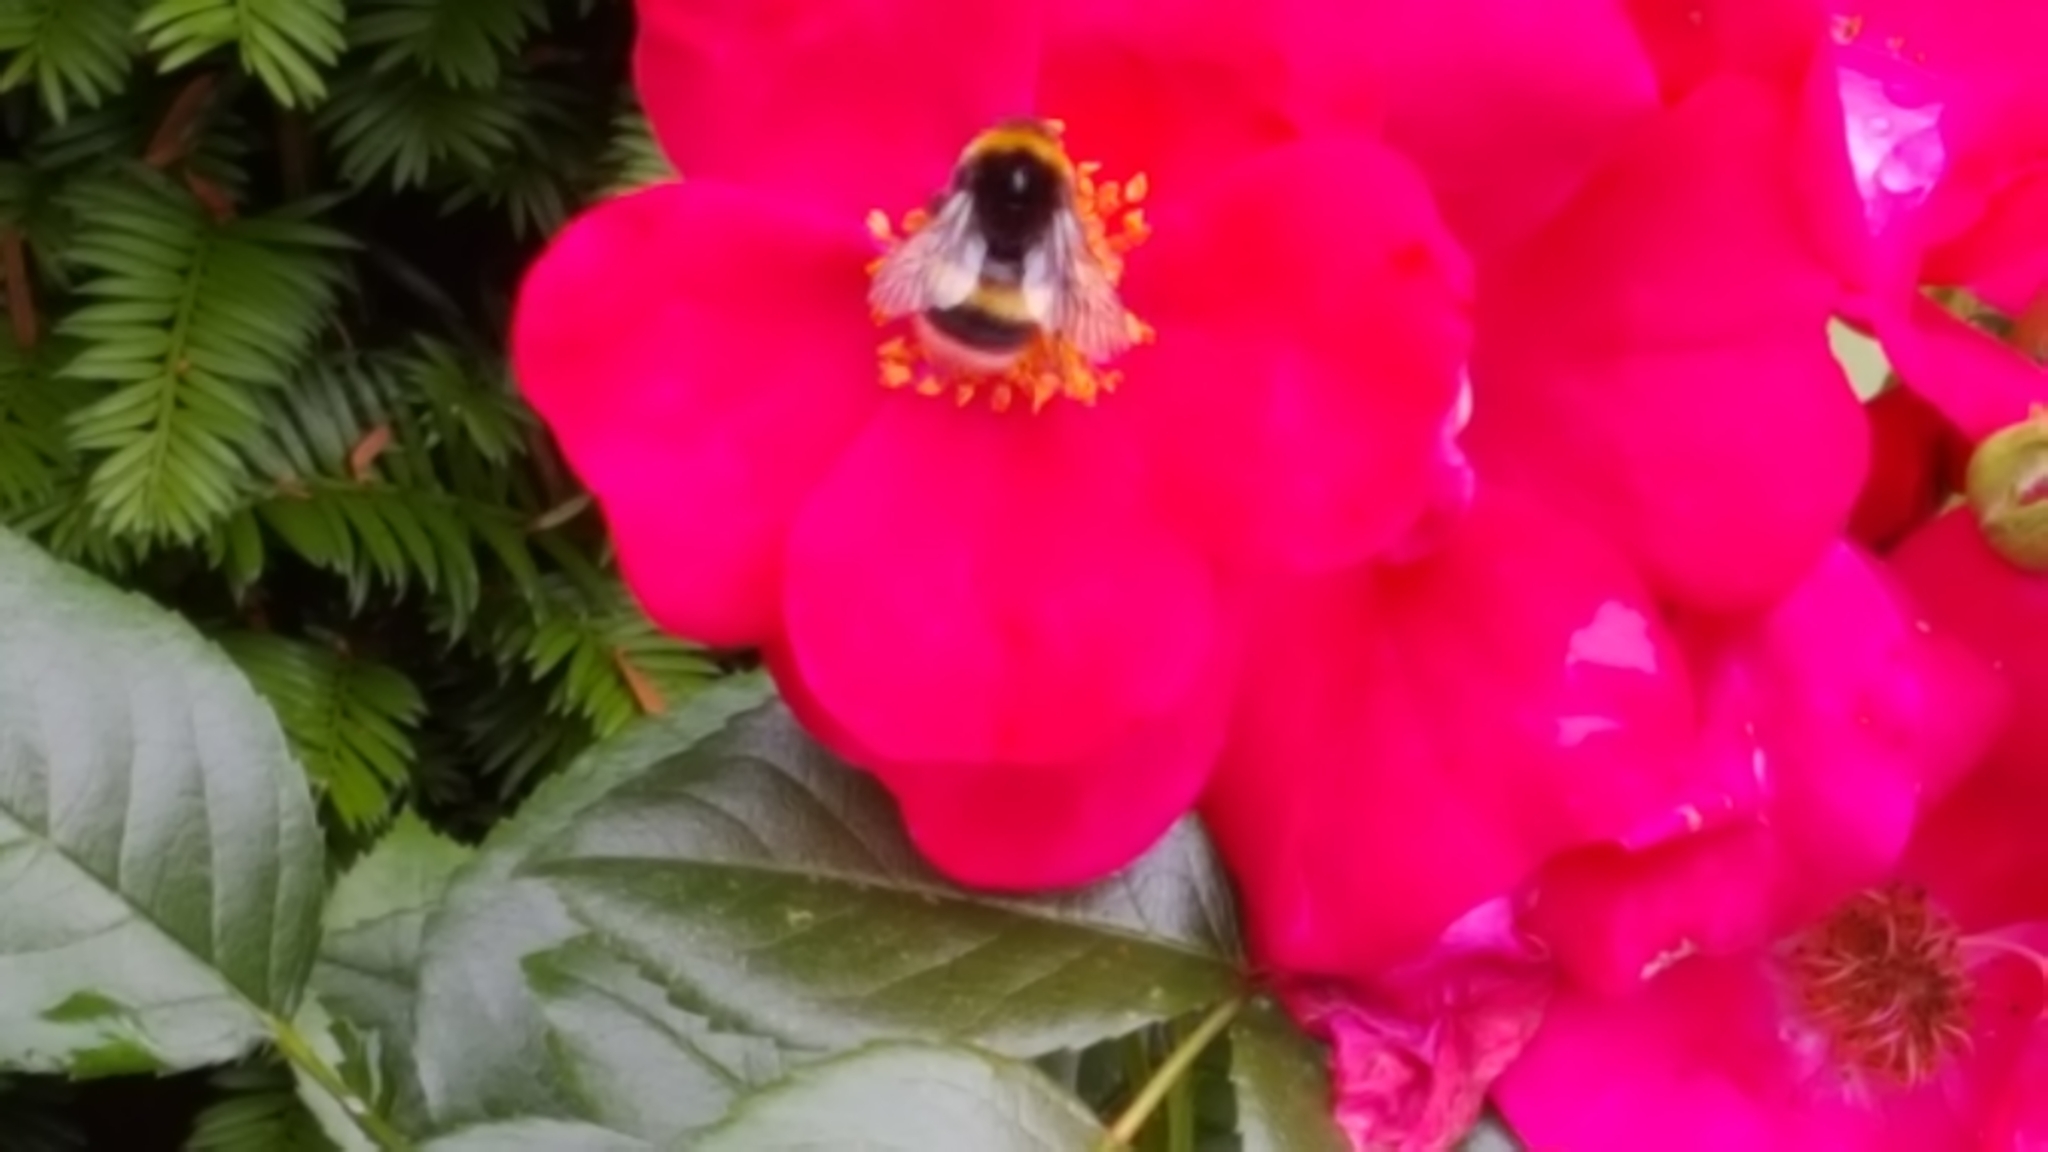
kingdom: Animalia
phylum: Arthropoda
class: Insecta
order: Hymenoptera
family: Apidae
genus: Bombus
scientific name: Bombus
